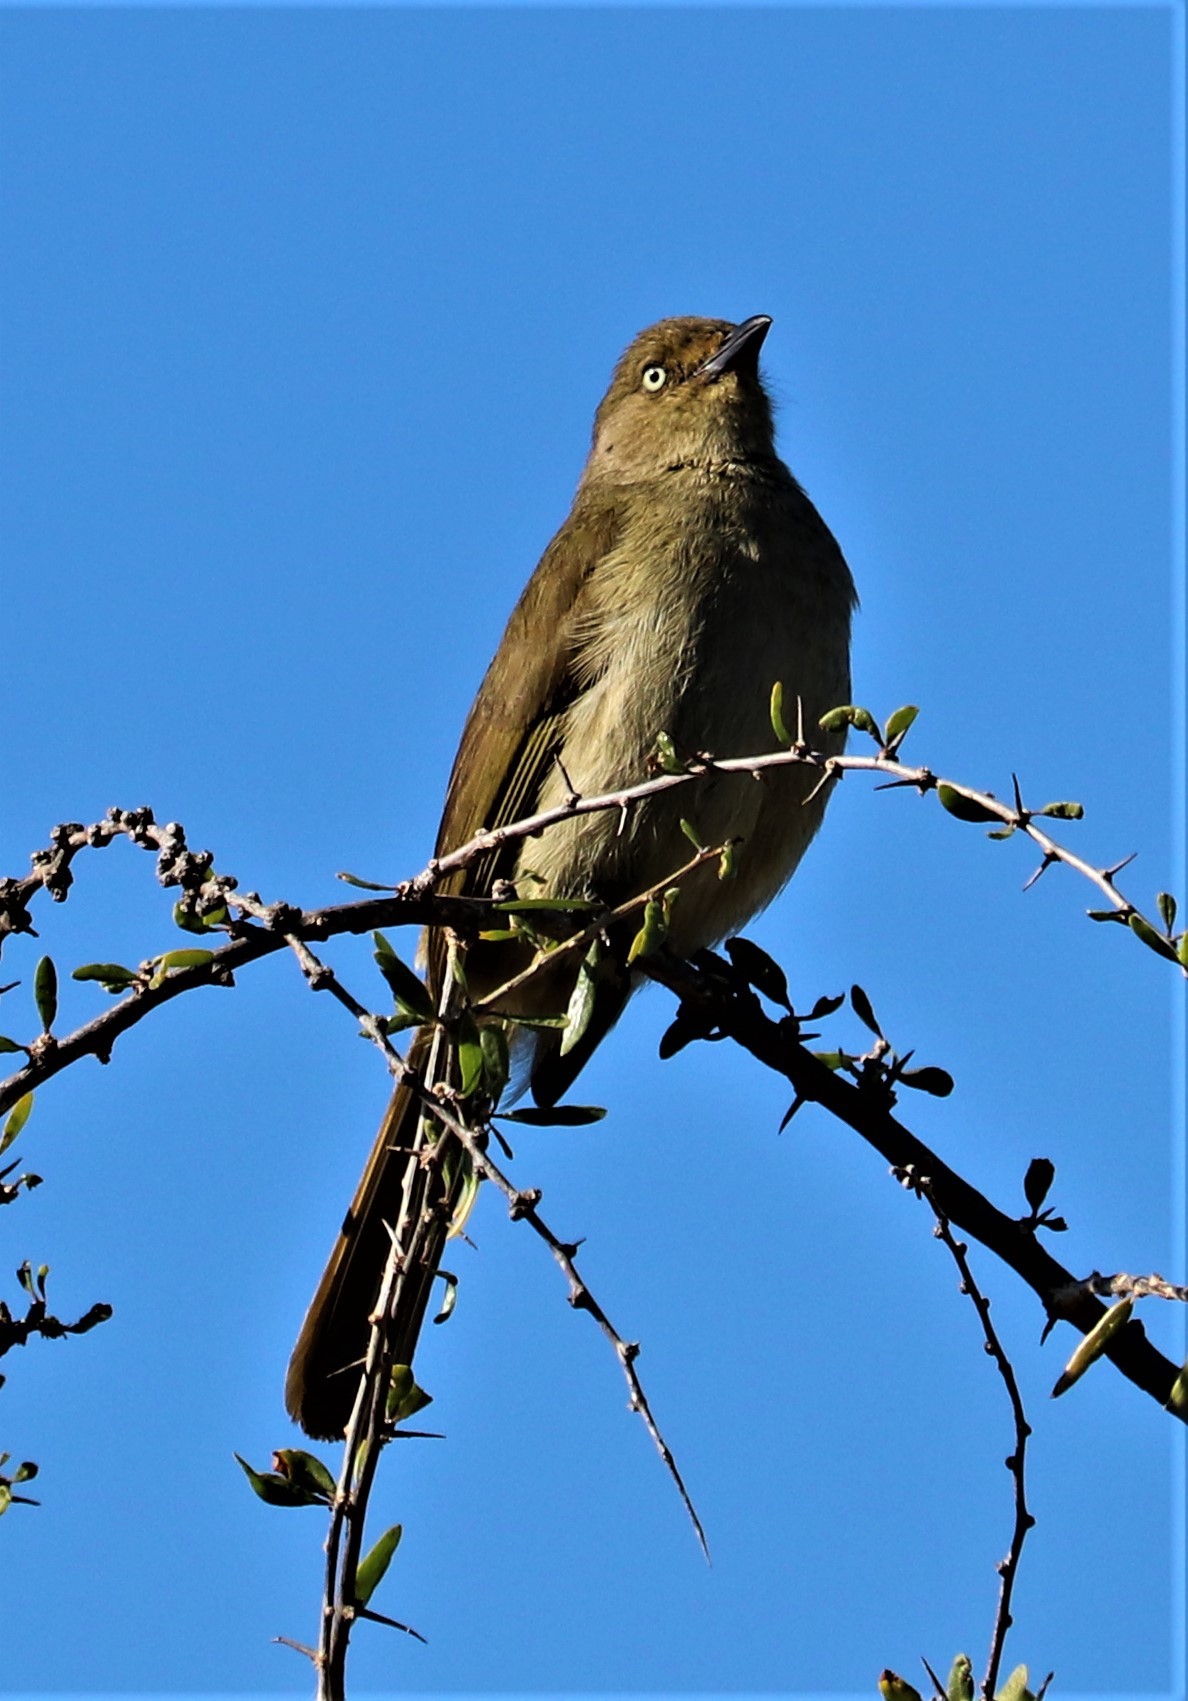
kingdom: Animalia
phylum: Chordata
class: Aves
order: Passeriformes
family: Pycnonotidae
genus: Andropadus
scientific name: Andropadus importunus
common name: Sombre greenbul
